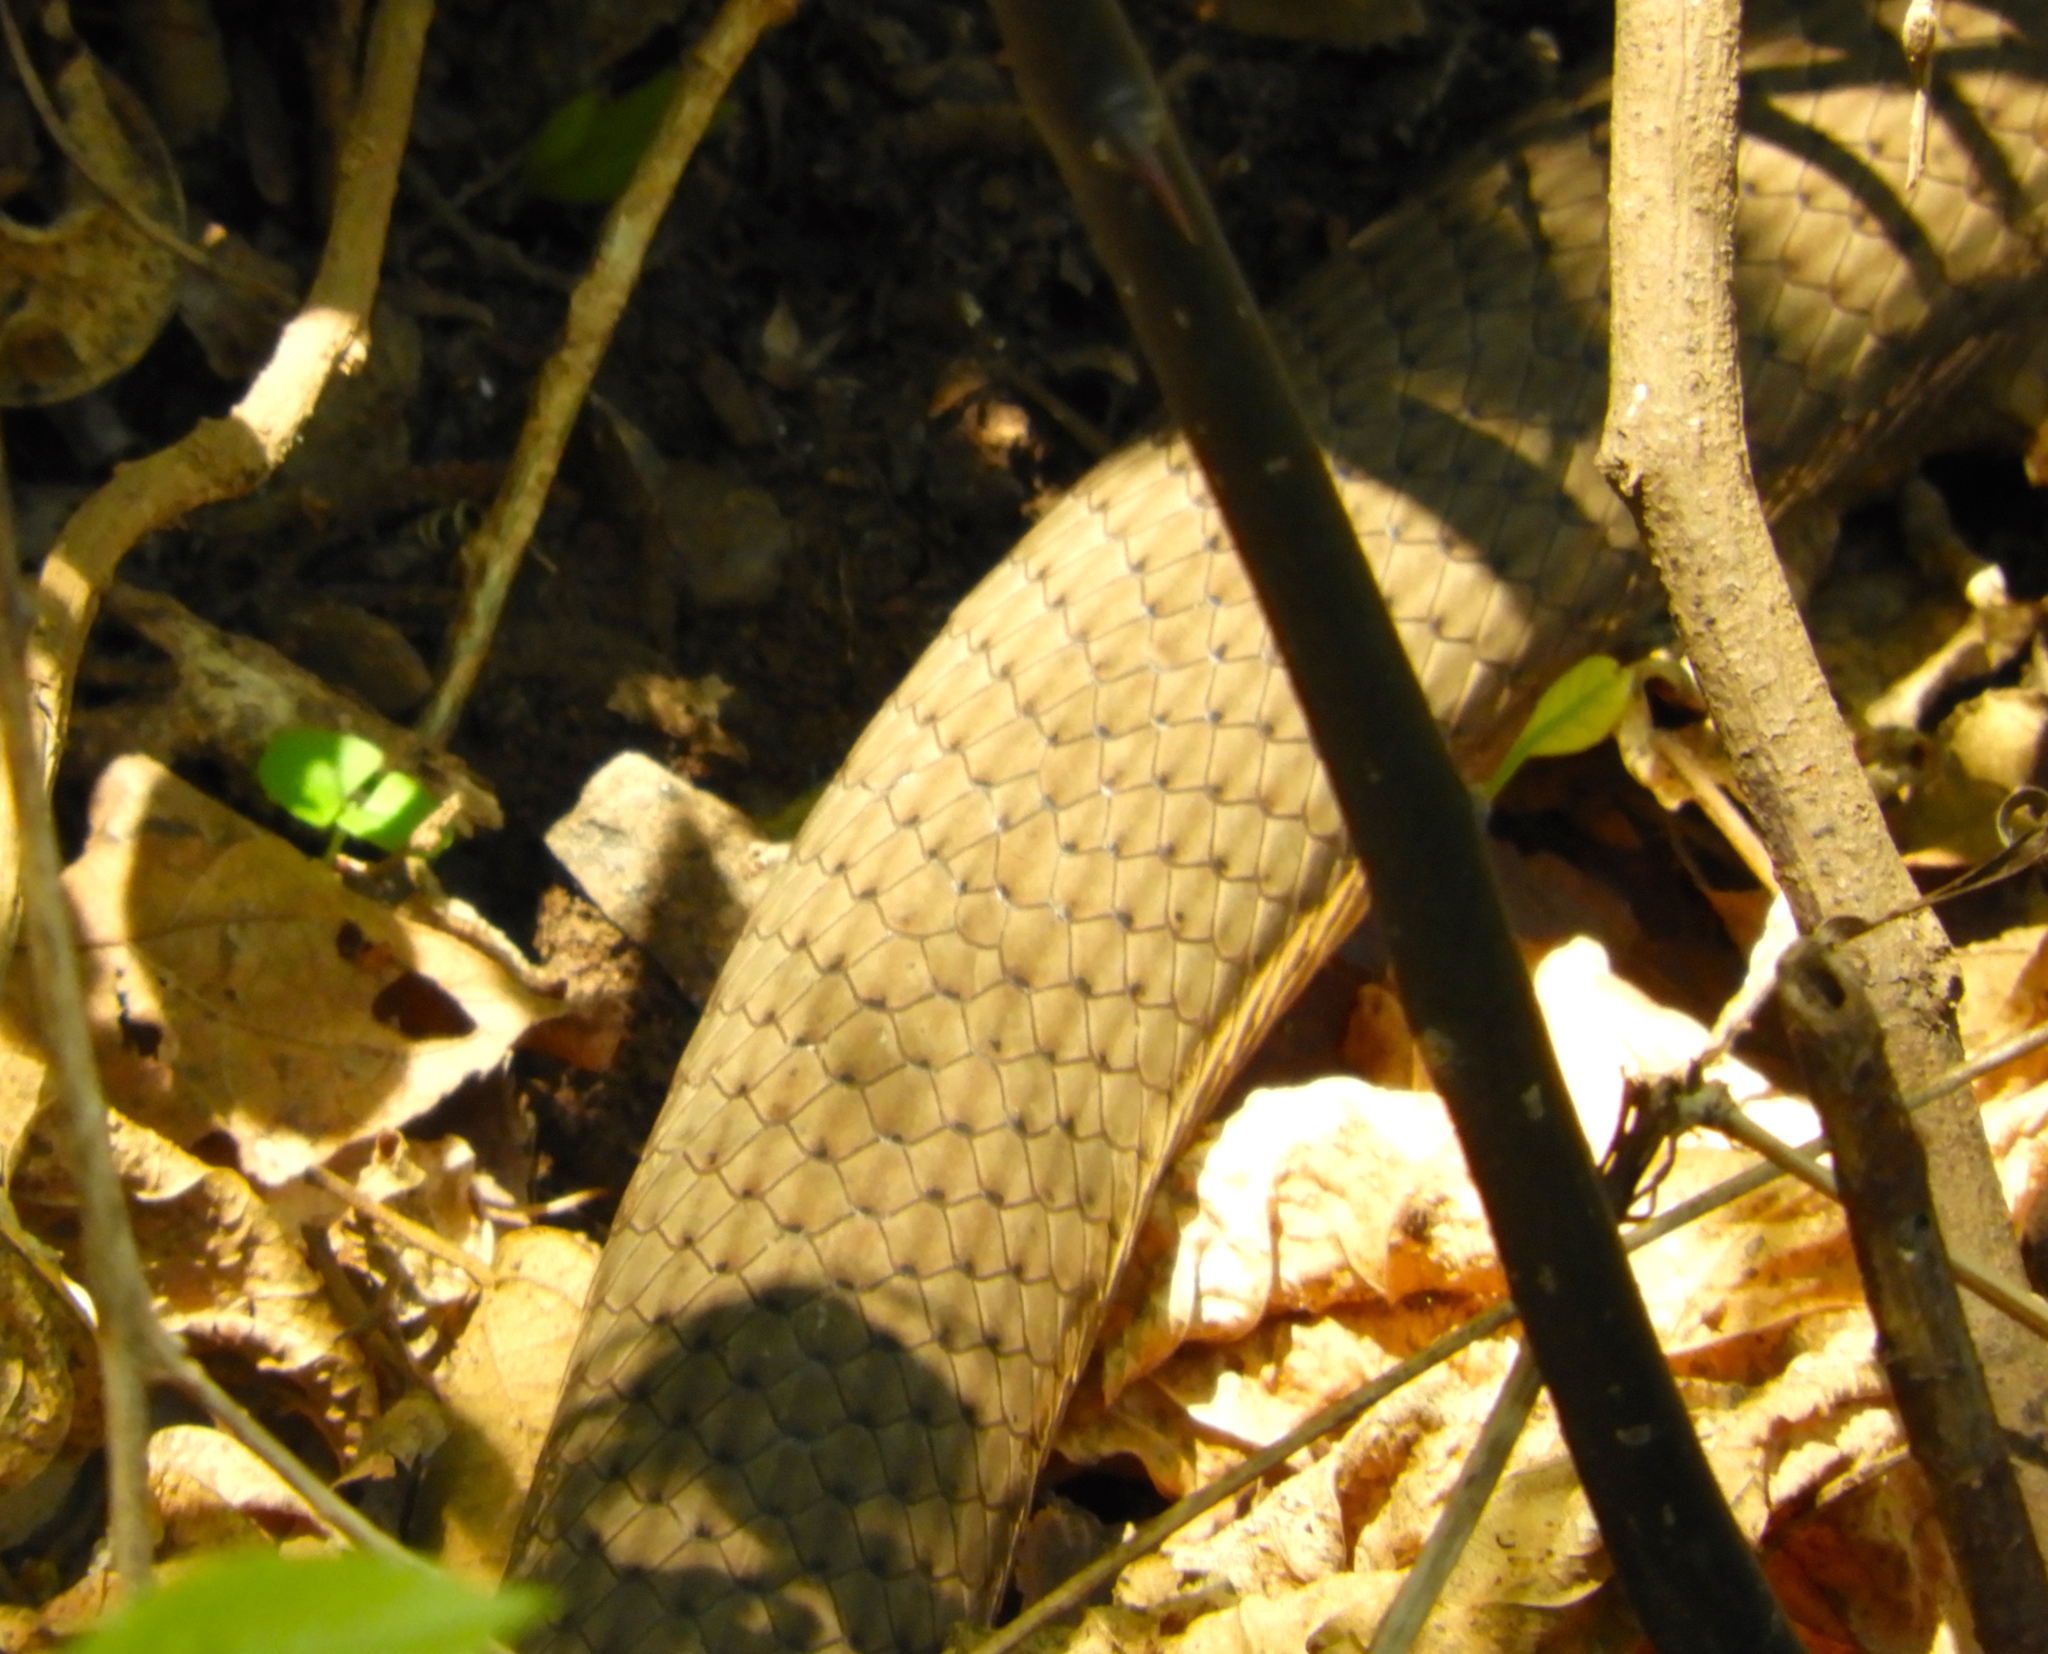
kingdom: Animalia
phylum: Chordata
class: Squamata
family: Colubridae
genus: Masticophis
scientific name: Masticophis mentovarius
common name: Neotropical whip snake
